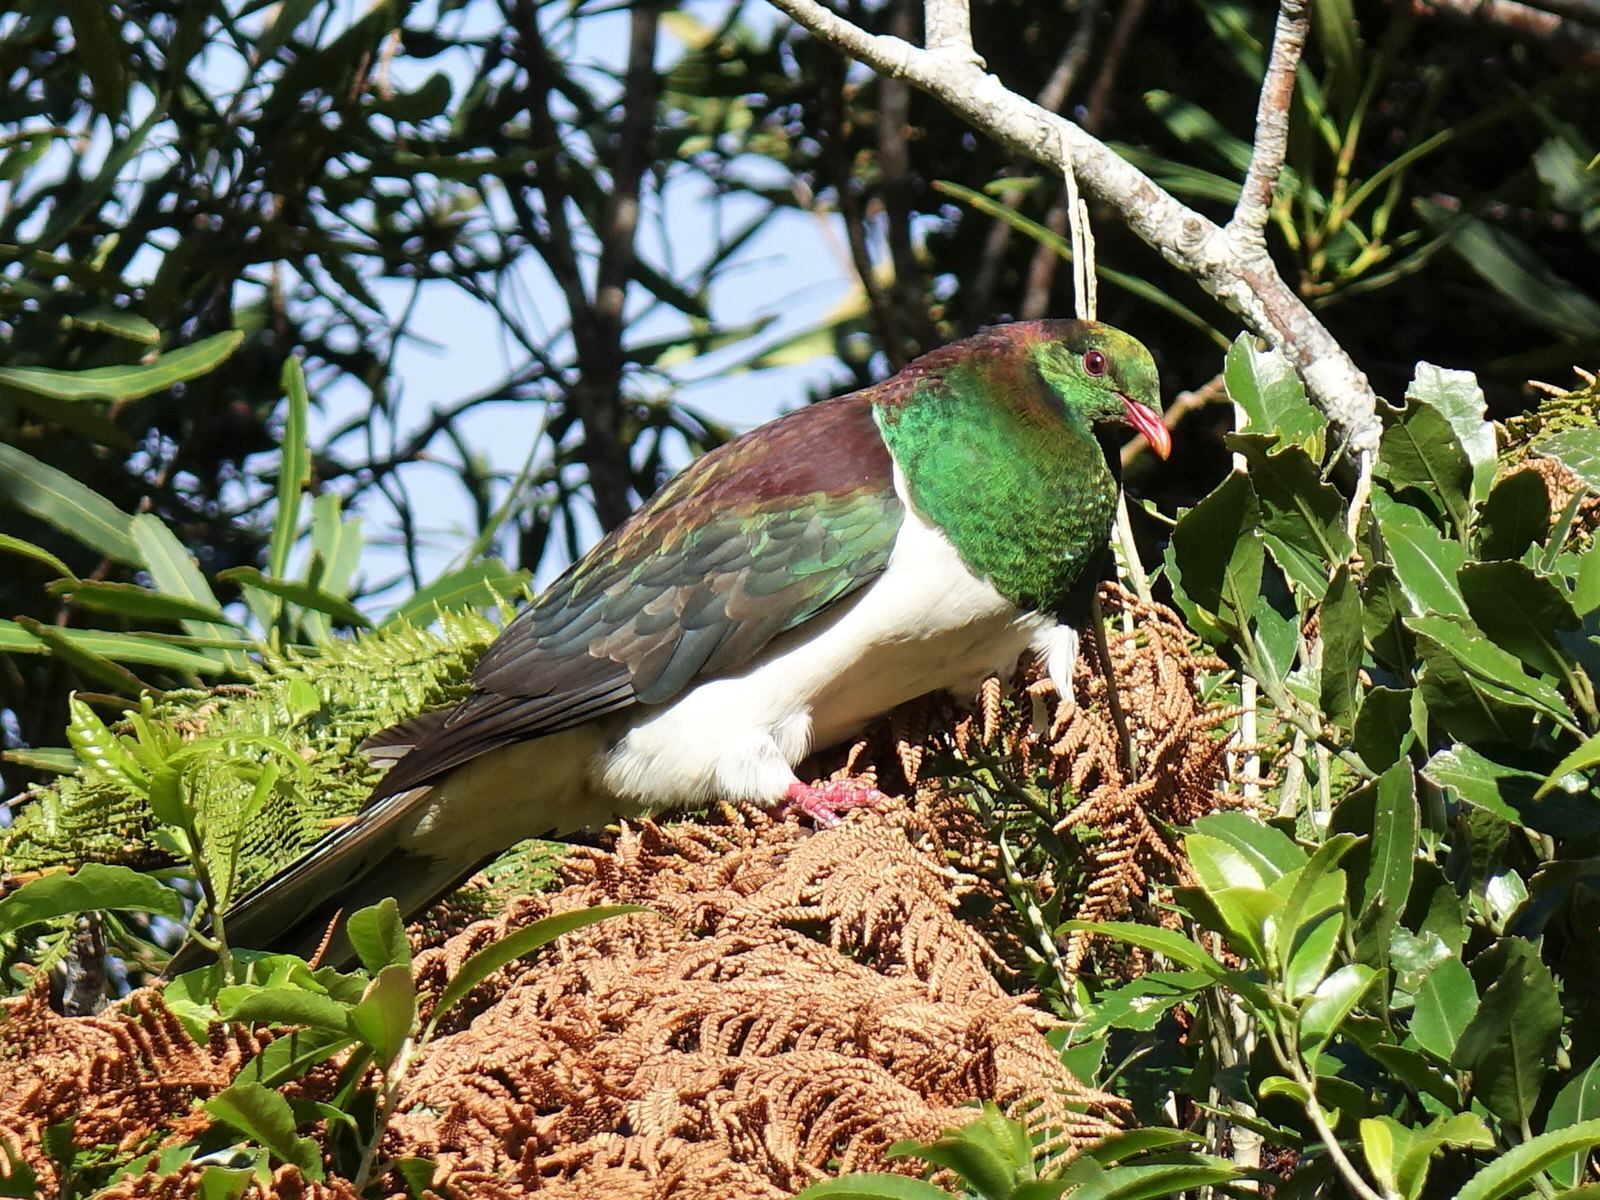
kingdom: Animalia
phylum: Chordata
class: Aves
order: Columbiformes
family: Columbidae
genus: Hemiphaga
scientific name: Hemiphaga novaeseelandiae
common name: New zealand pigeon
